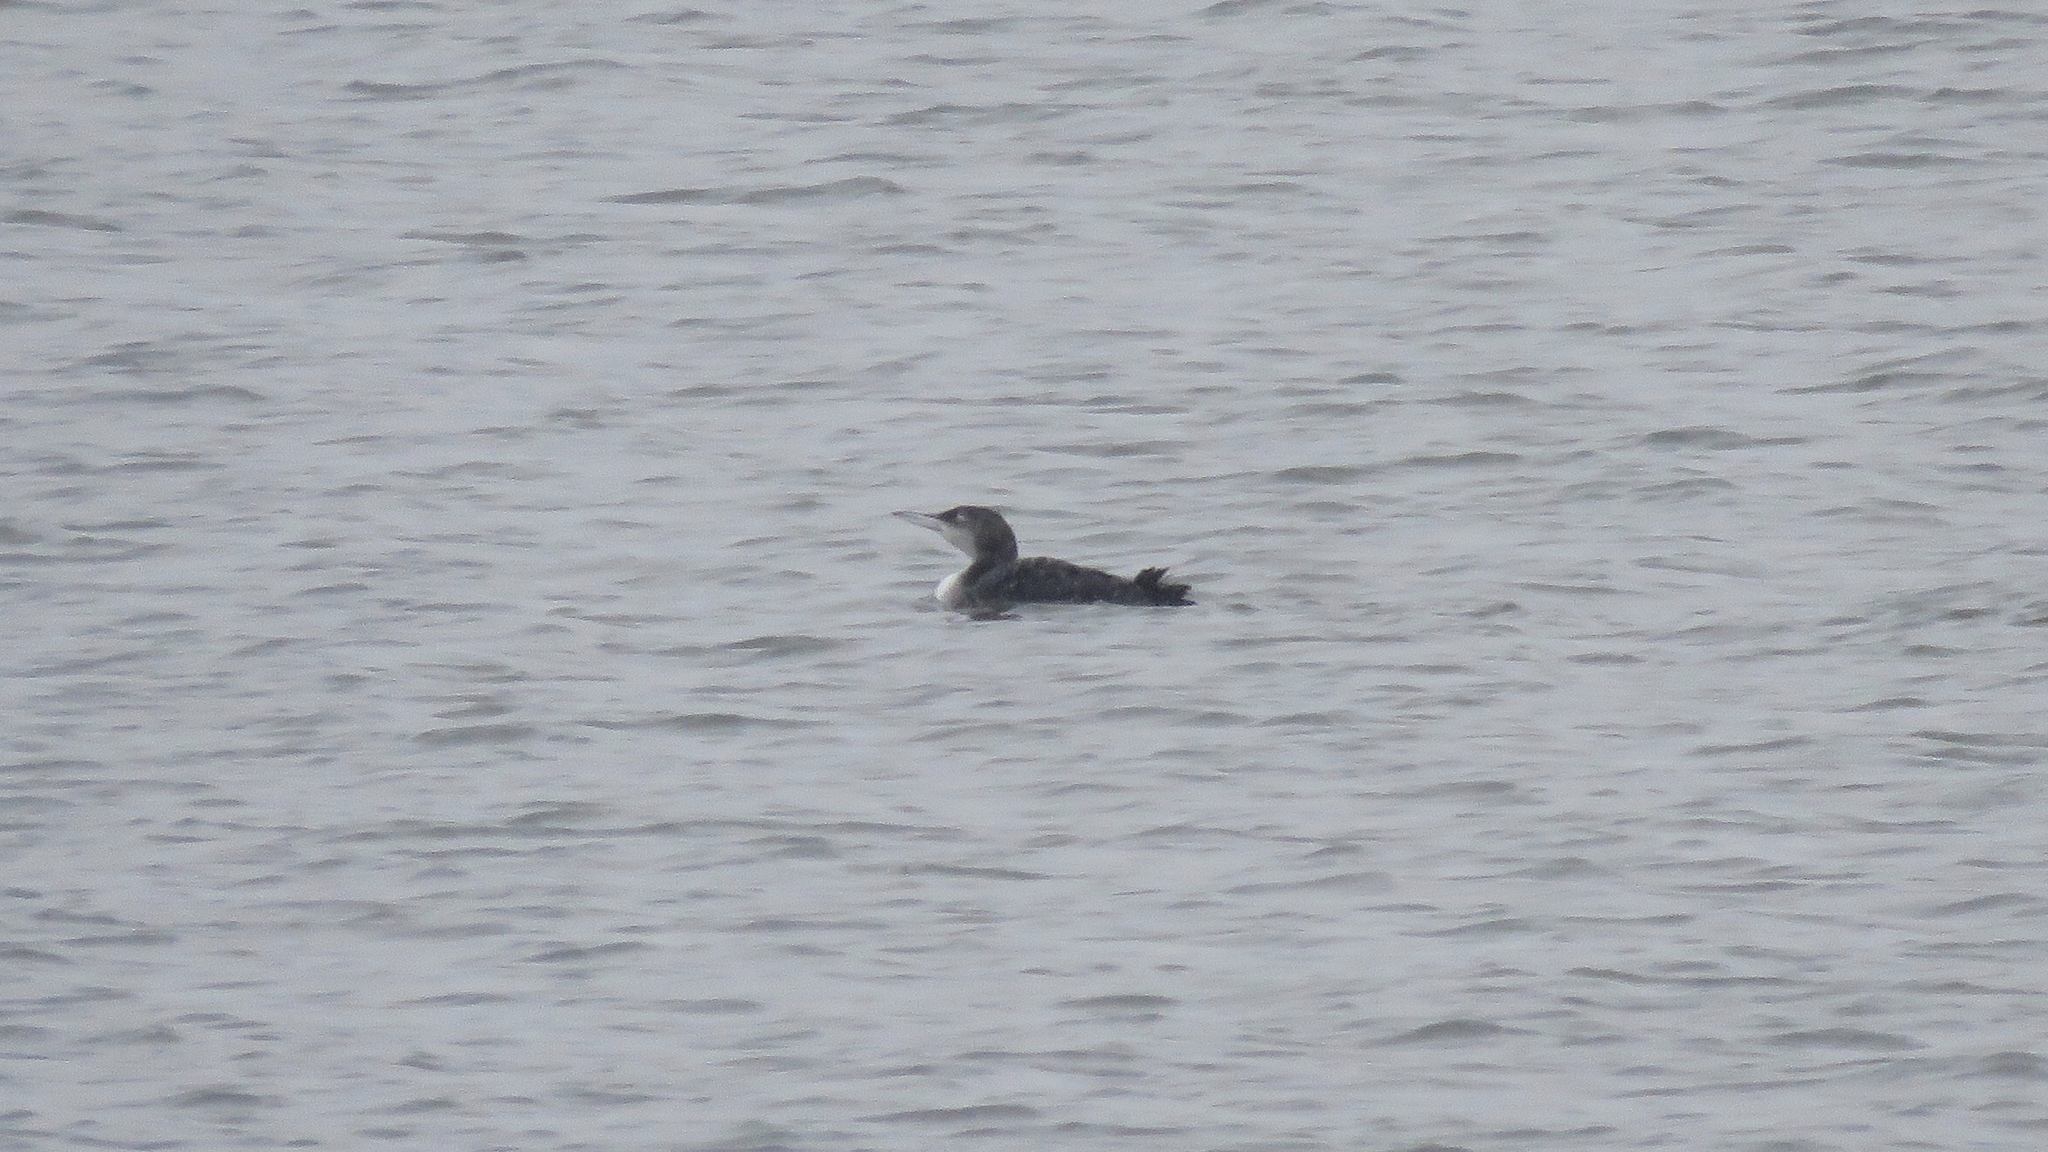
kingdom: Animalia
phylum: Chordata
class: Aves
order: Gaviiformes
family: Gaviidae
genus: Gavia
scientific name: Gavia immer
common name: Common loon
